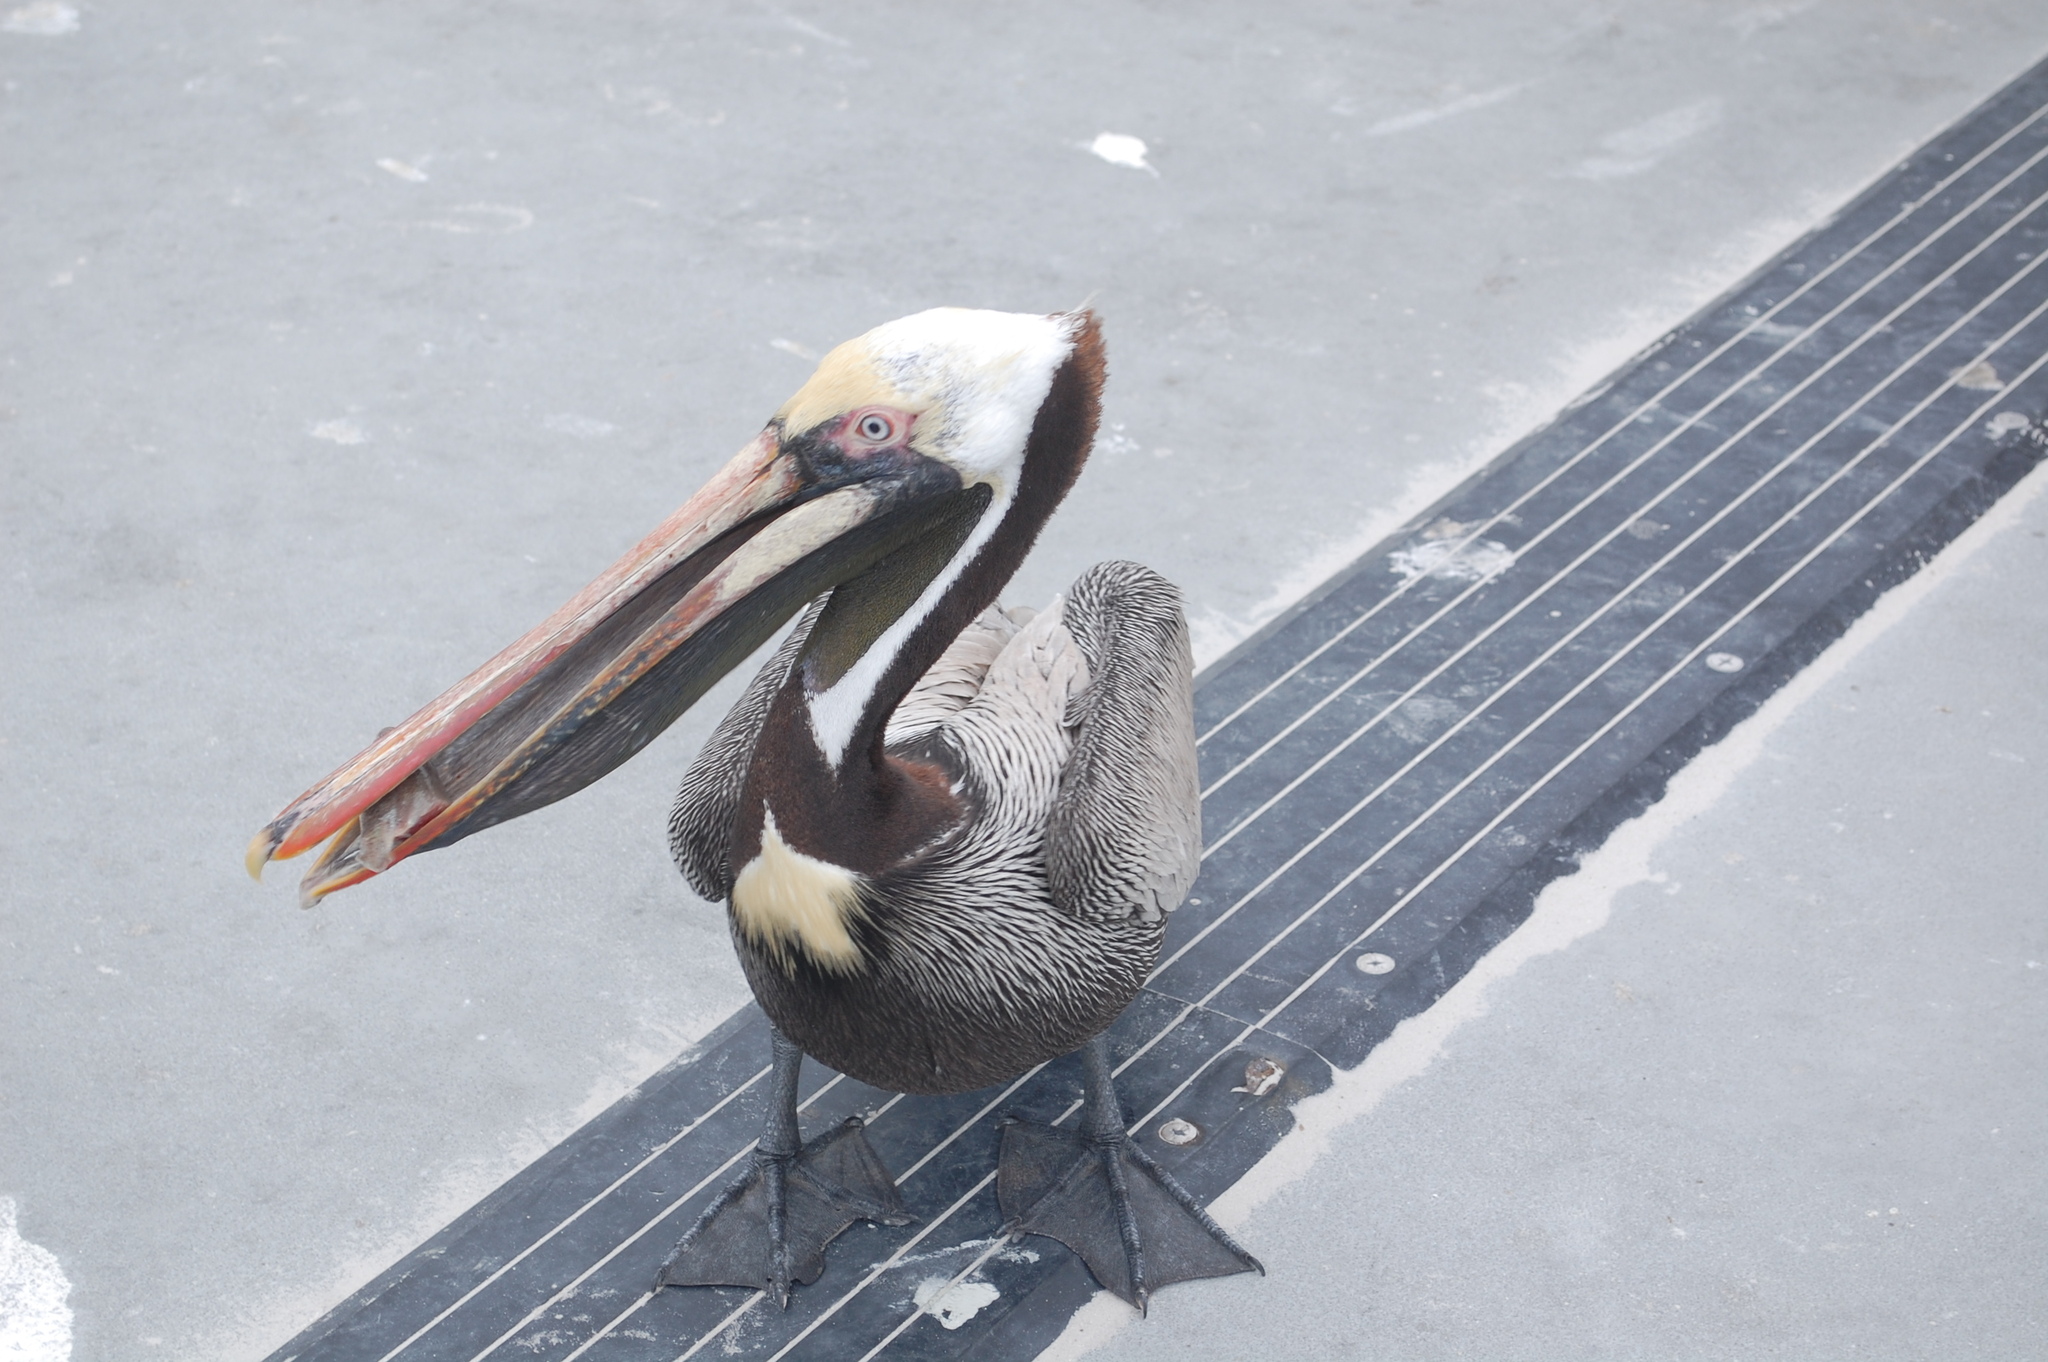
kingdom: Animalia
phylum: Chordata
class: Aves
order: Pelecaniformes
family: Pelecanidae
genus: Pelecanus
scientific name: Pelecanus occidentalis
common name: Brown pelican
